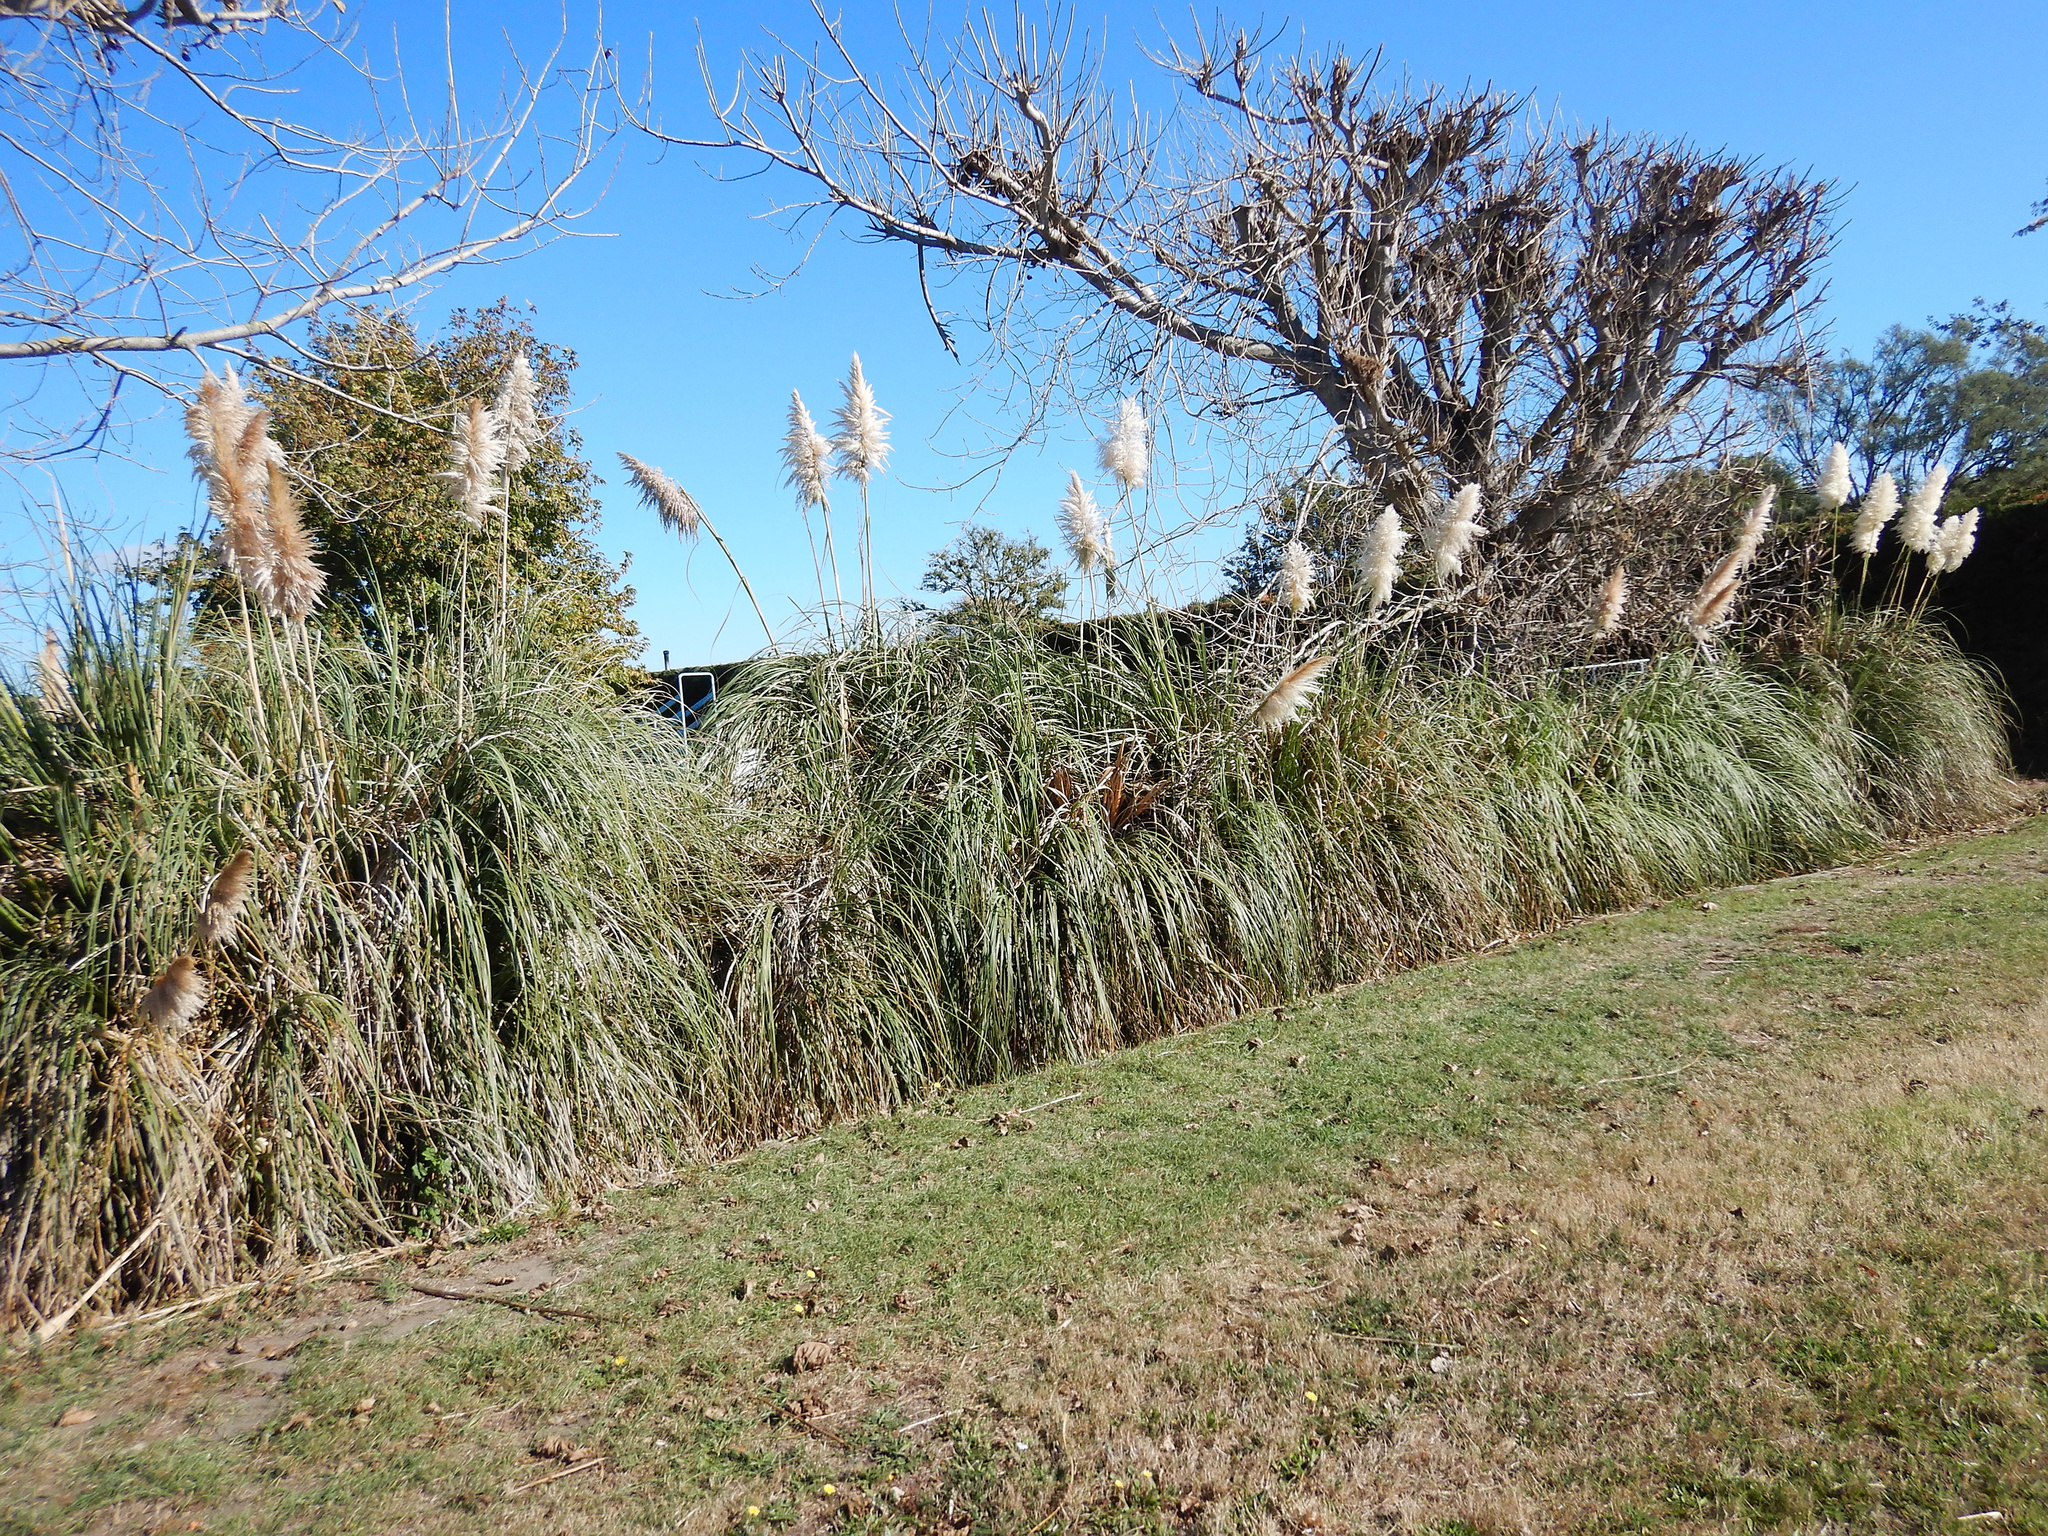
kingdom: Plantae
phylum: Tracheophyta
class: Liliopsida
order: Poales
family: Poaceae
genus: Cortaderia
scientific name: Cortaderia selloana
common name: Uruguayan pampas grass
